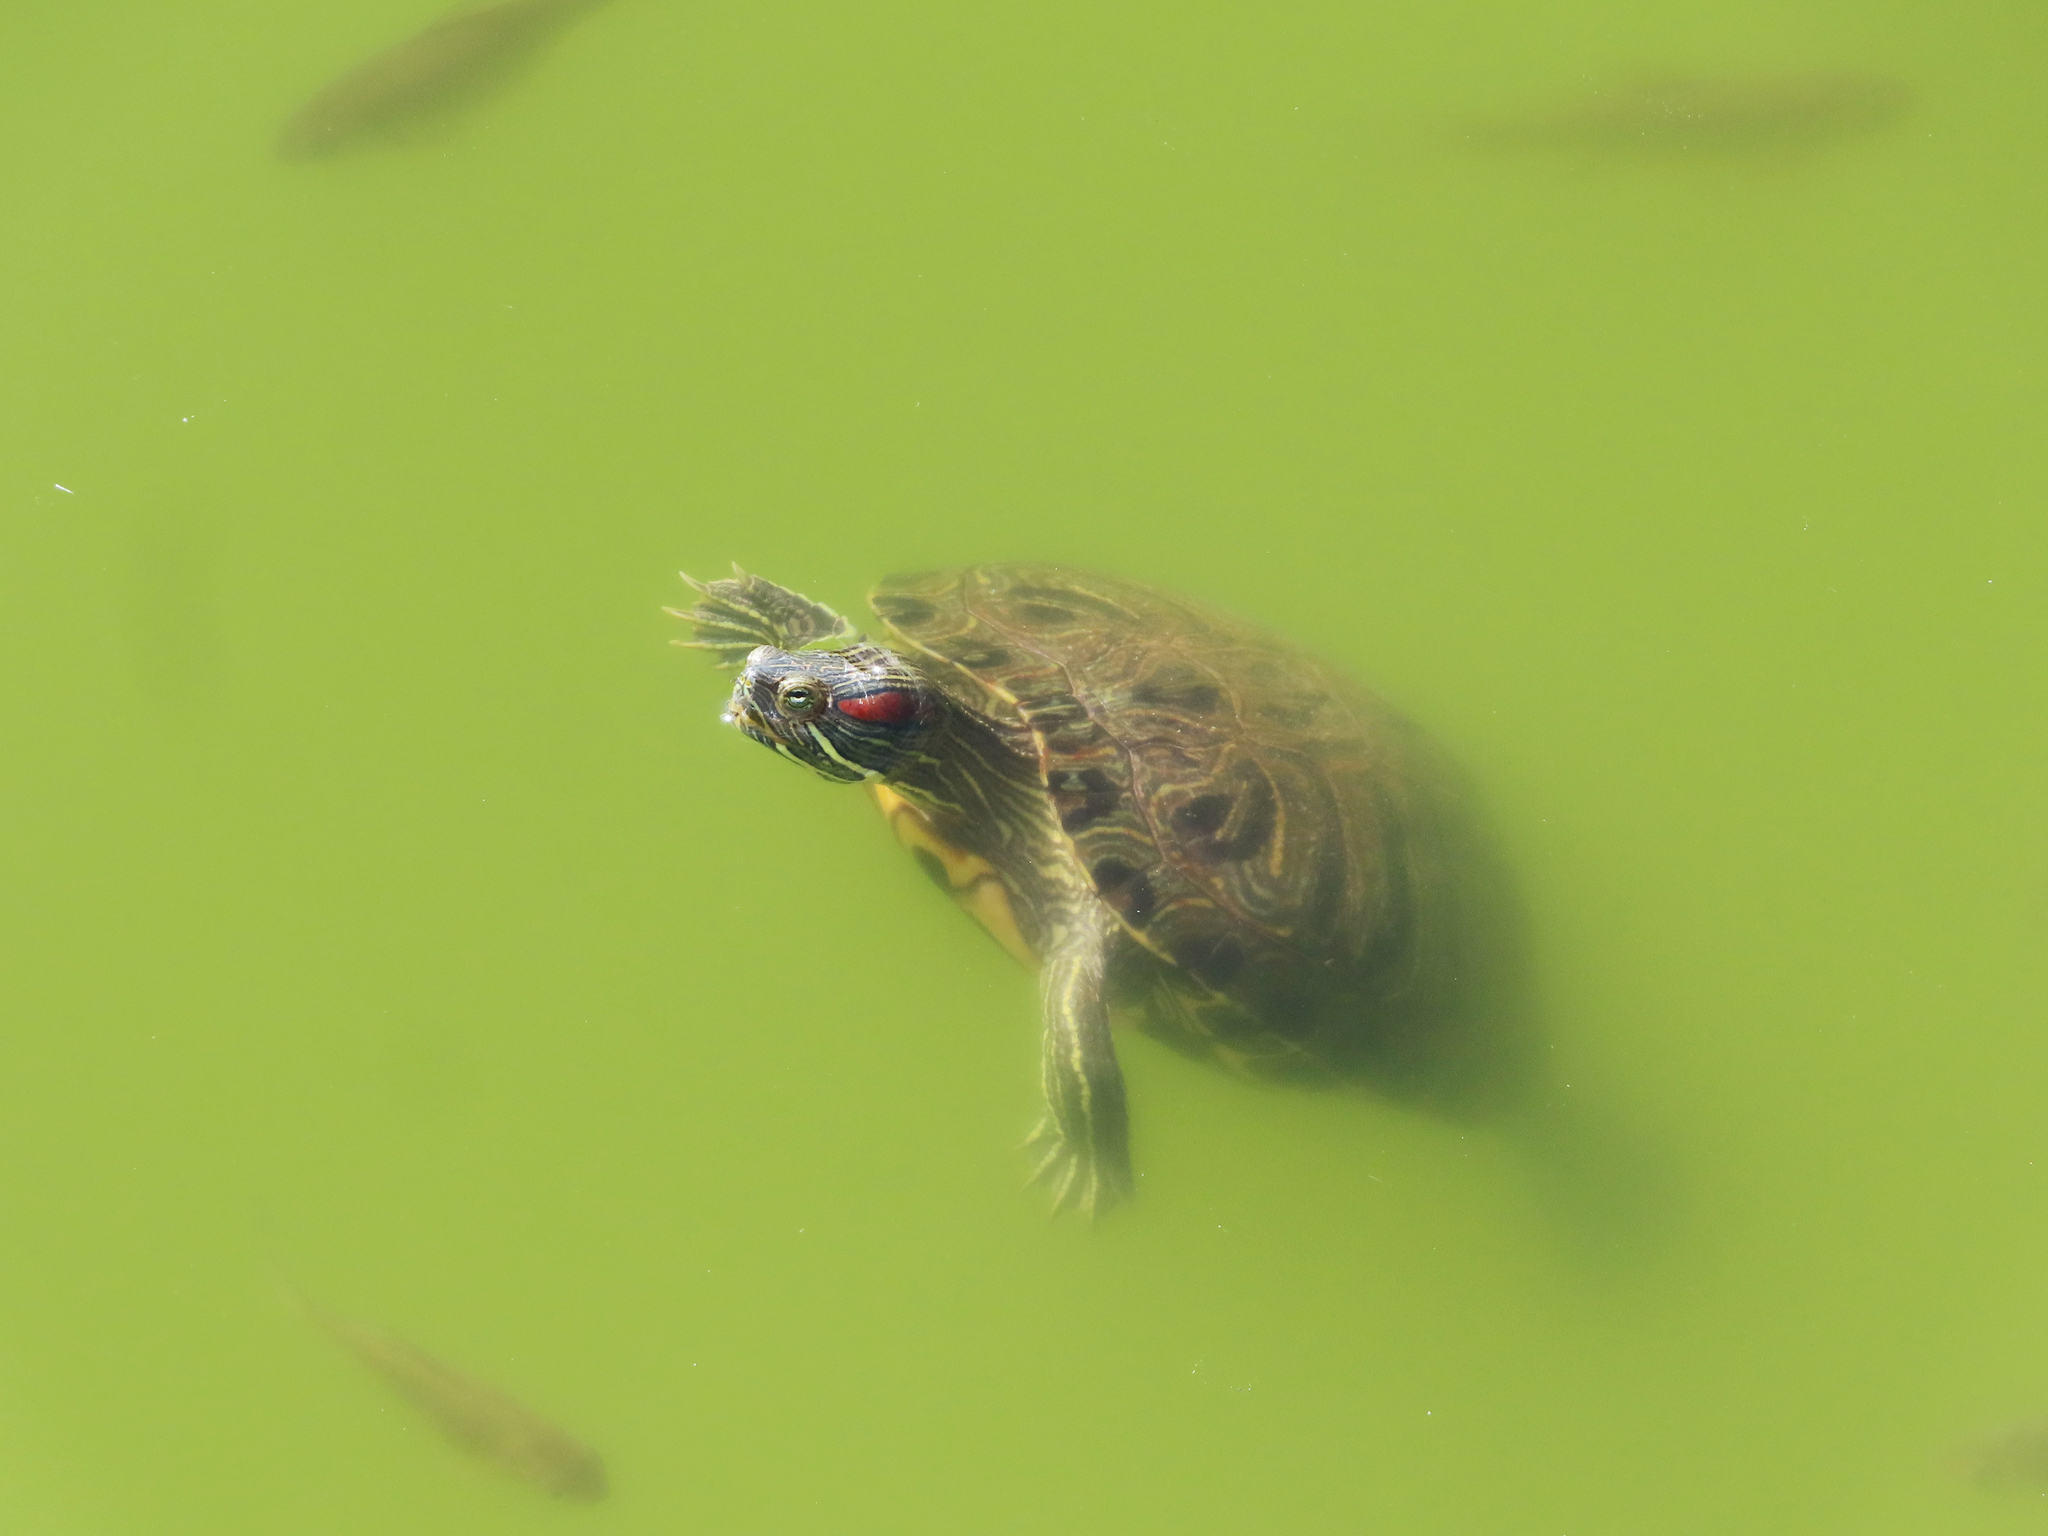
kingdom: Animalia
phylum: Chordata
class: Testudines
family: Emydidae
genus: Trachemys
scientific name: Trachemys scripta
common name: Slider
